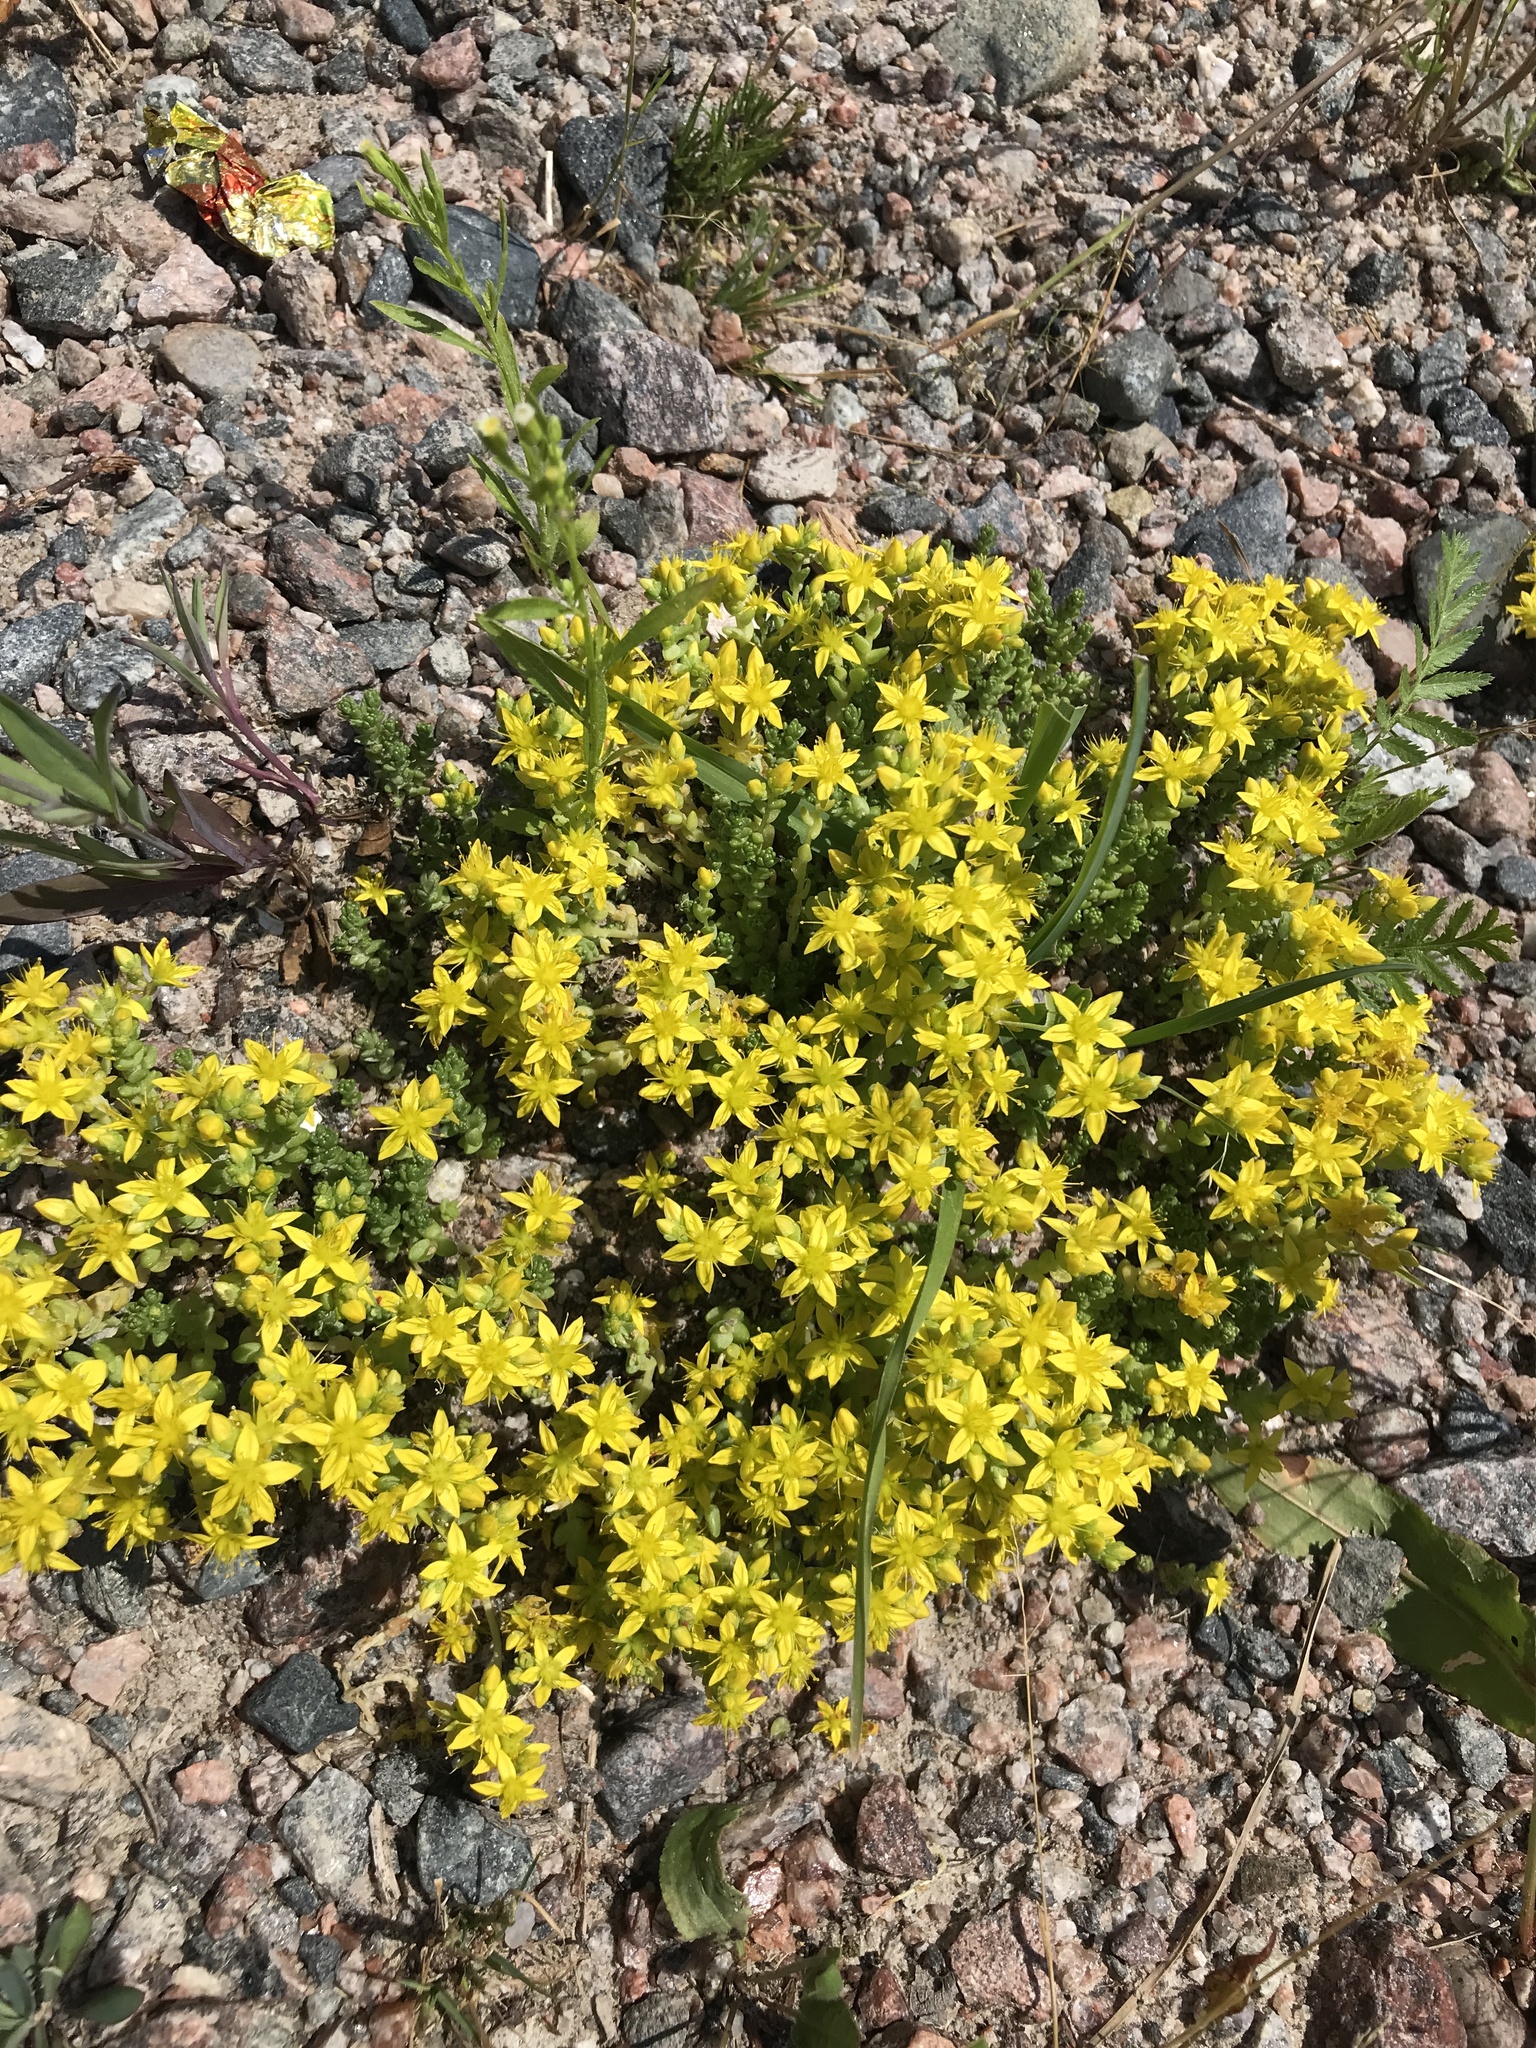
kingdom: Plantae
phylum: Tracheophyta
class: Magnoliopsida
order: Saxifragales
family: Crassulaceae
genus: Sedum
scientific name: Sedum acre
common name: Biting stonecrop
